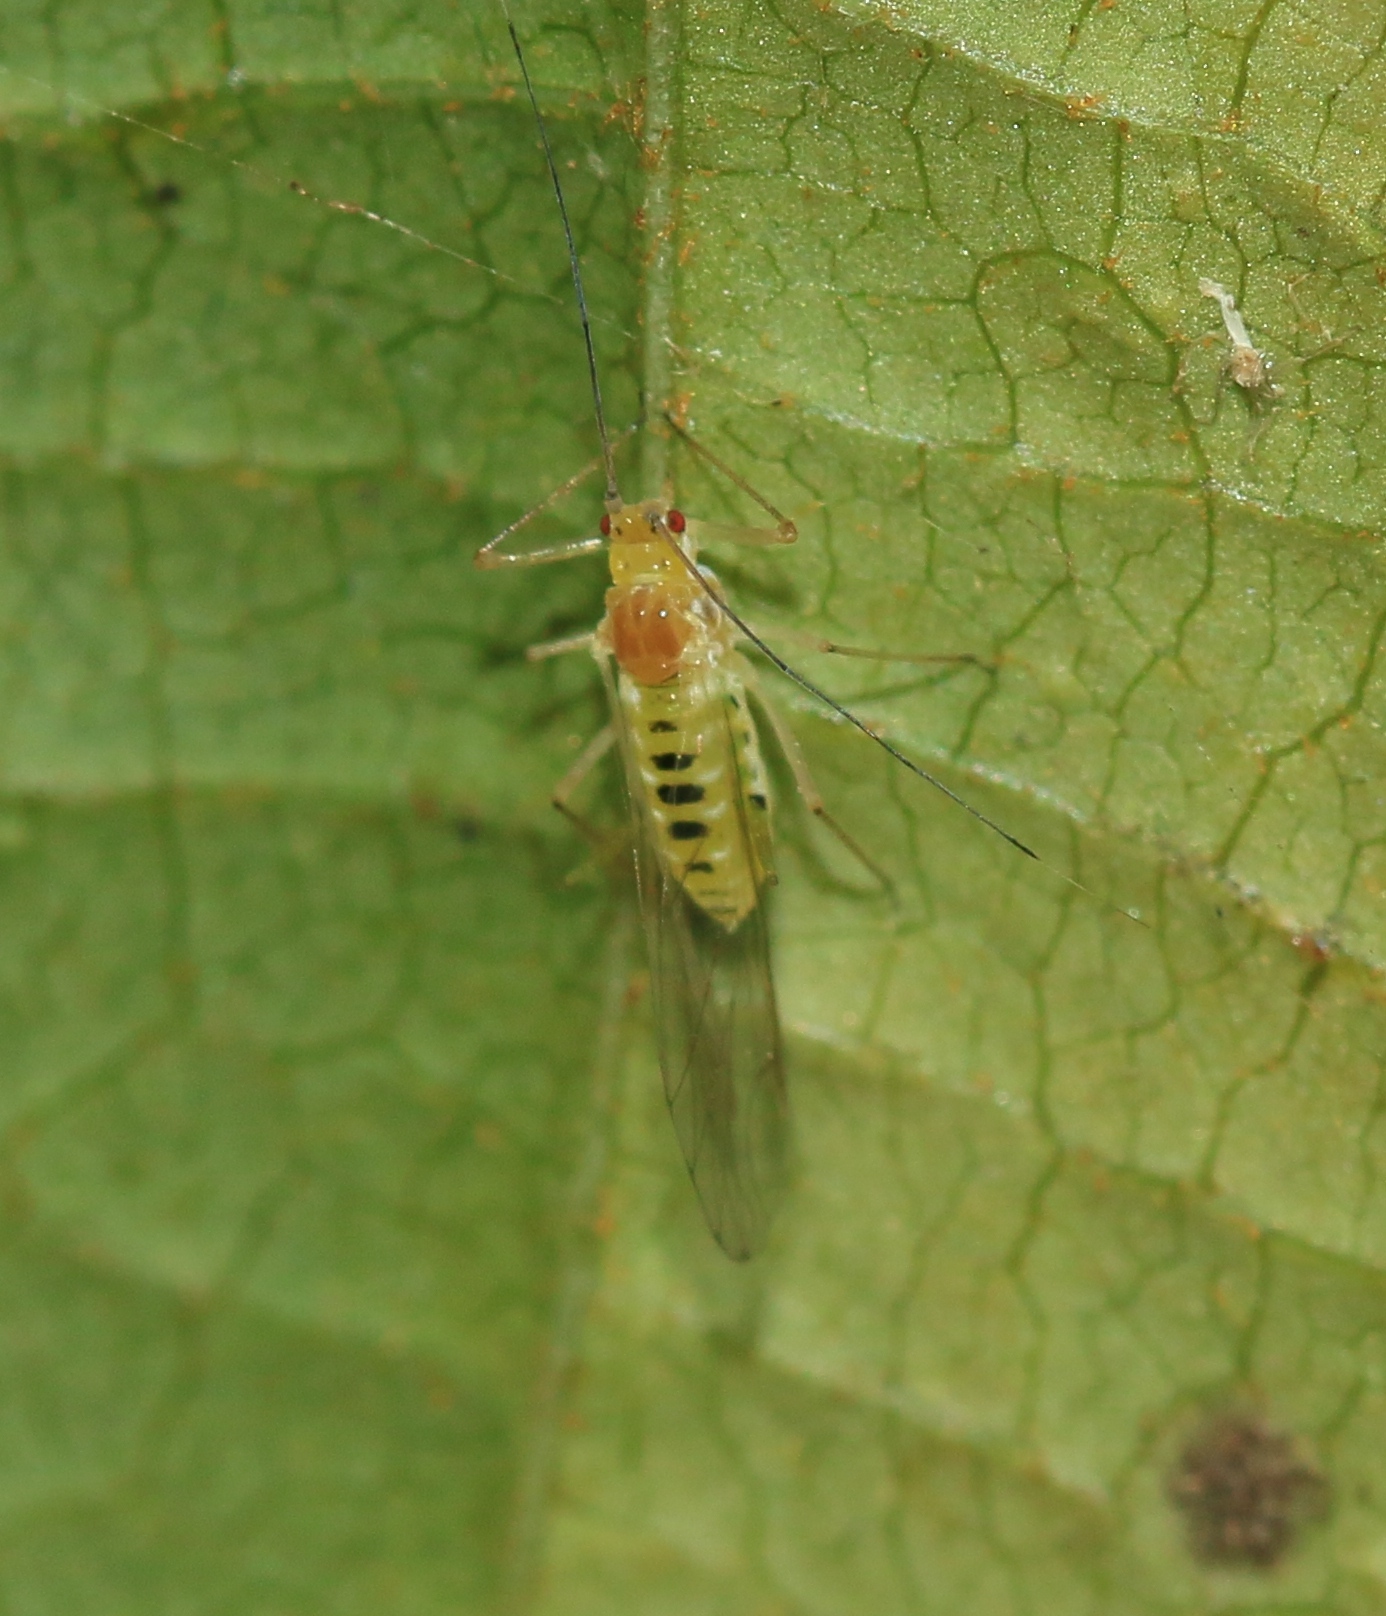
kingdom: Animalia
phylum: Arthropoda
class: Insecta
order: Hemiptera
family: Aphididae
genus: Drepanosiphum
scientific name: Drepanosiphum platanoidis
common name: Common sycamore aphid
